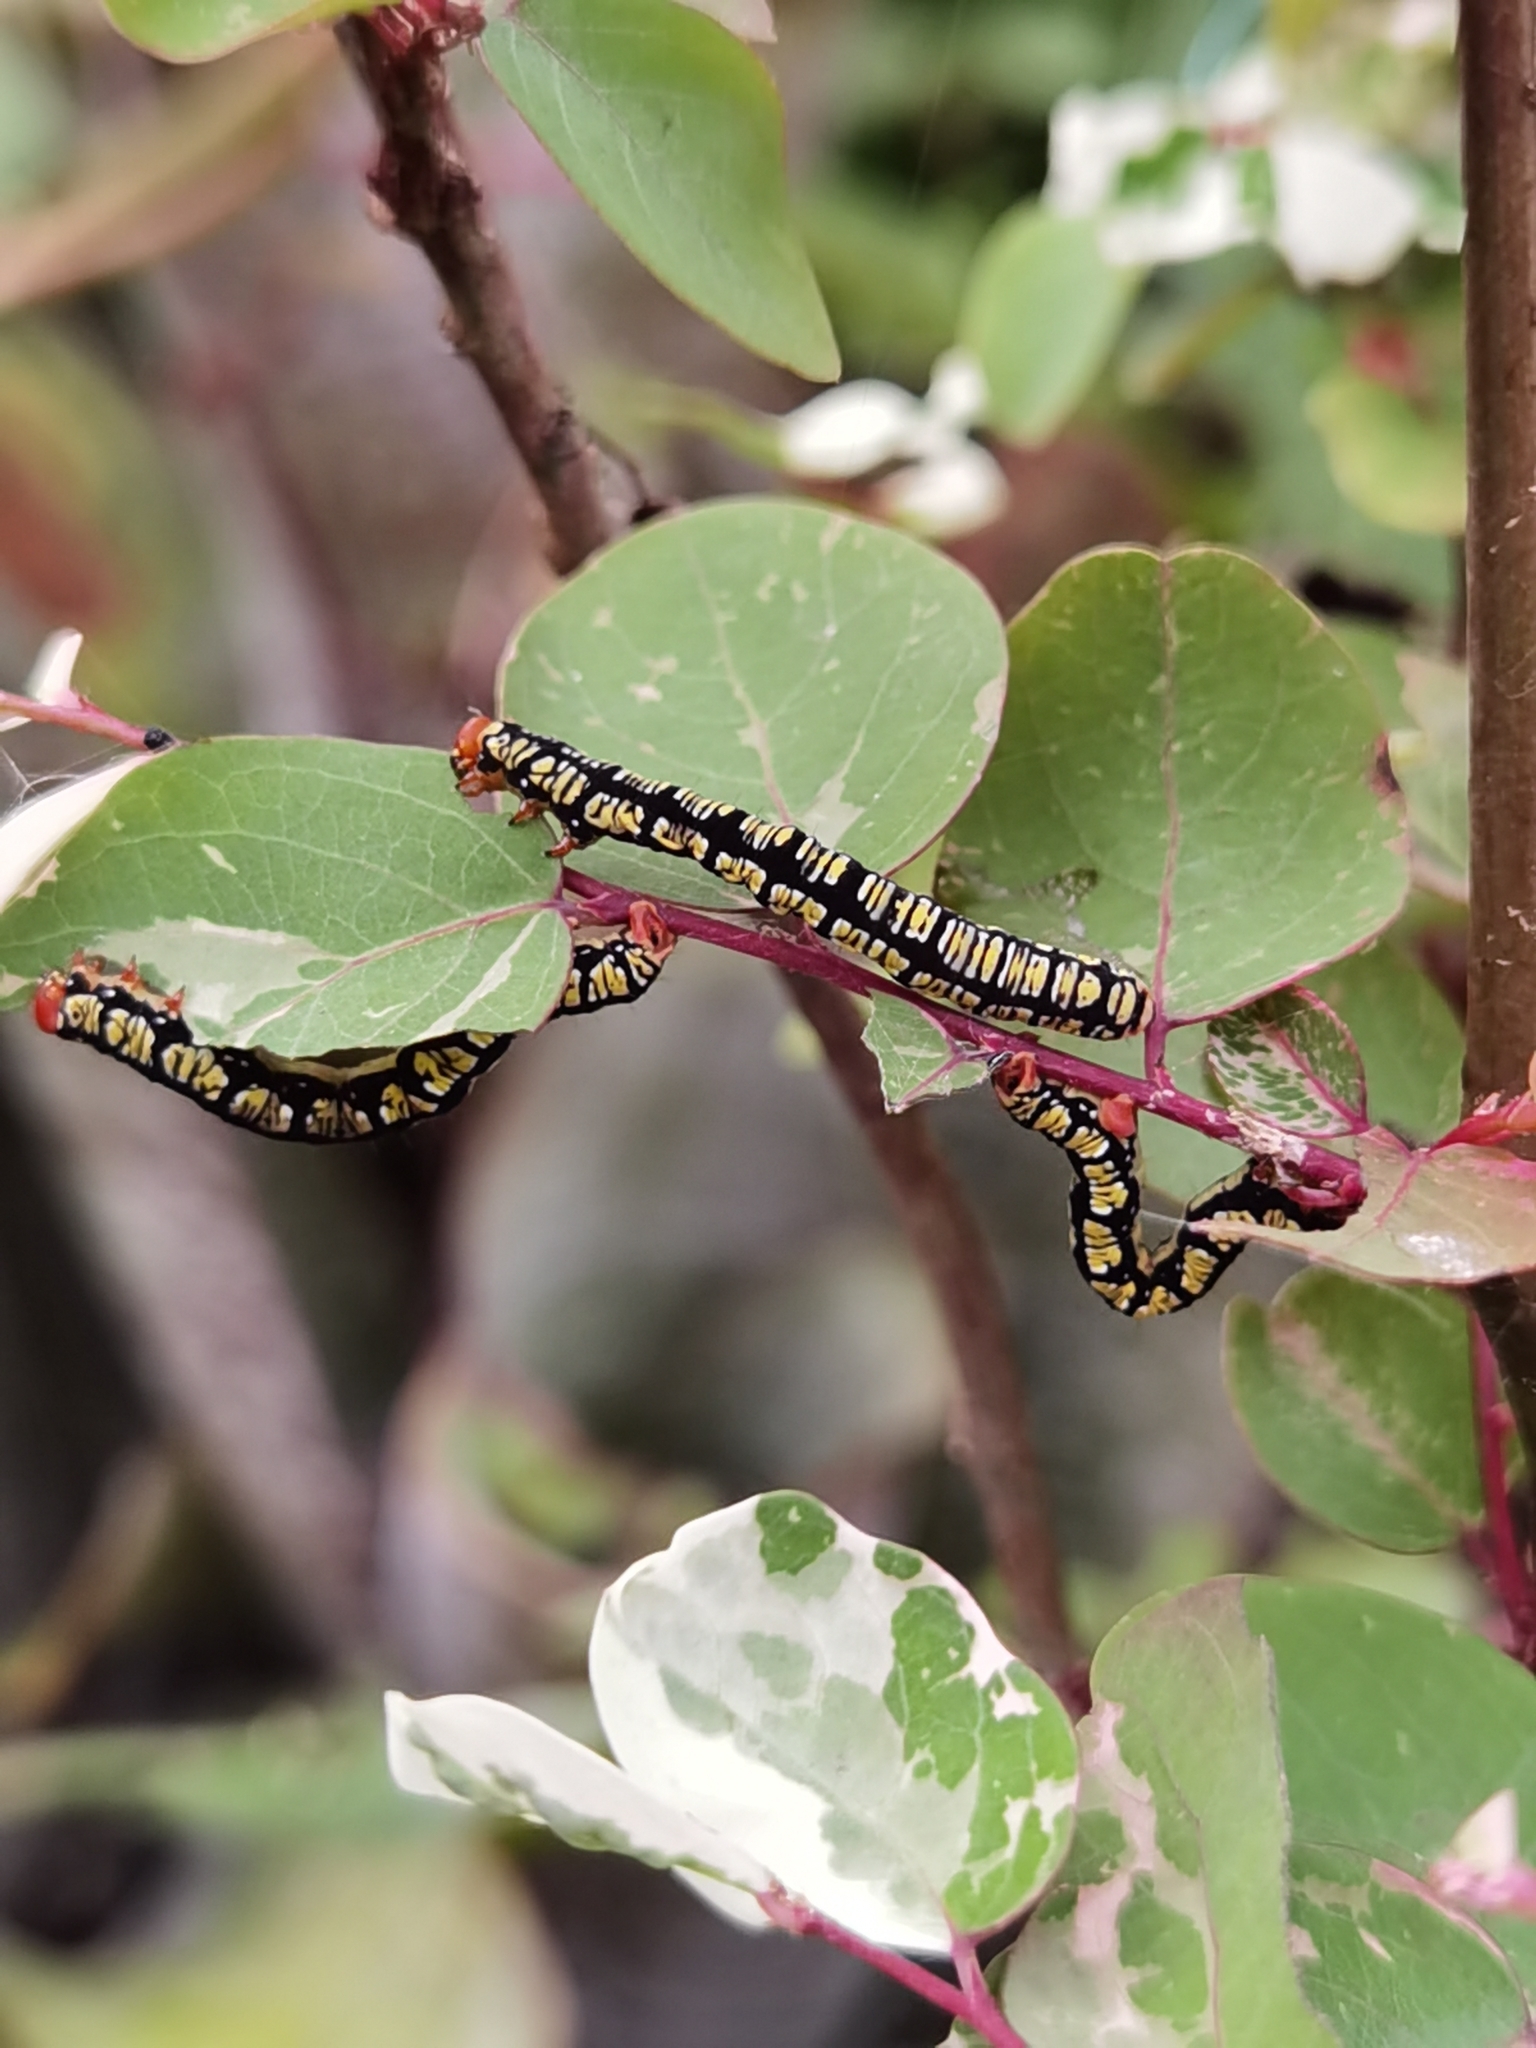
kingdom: Animalia
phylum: Arthropoda
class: Insecta
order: Lepidoptera
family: Geometridae
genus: Melanchroia
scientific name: Melanchroia chephise
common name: White-tipped black
